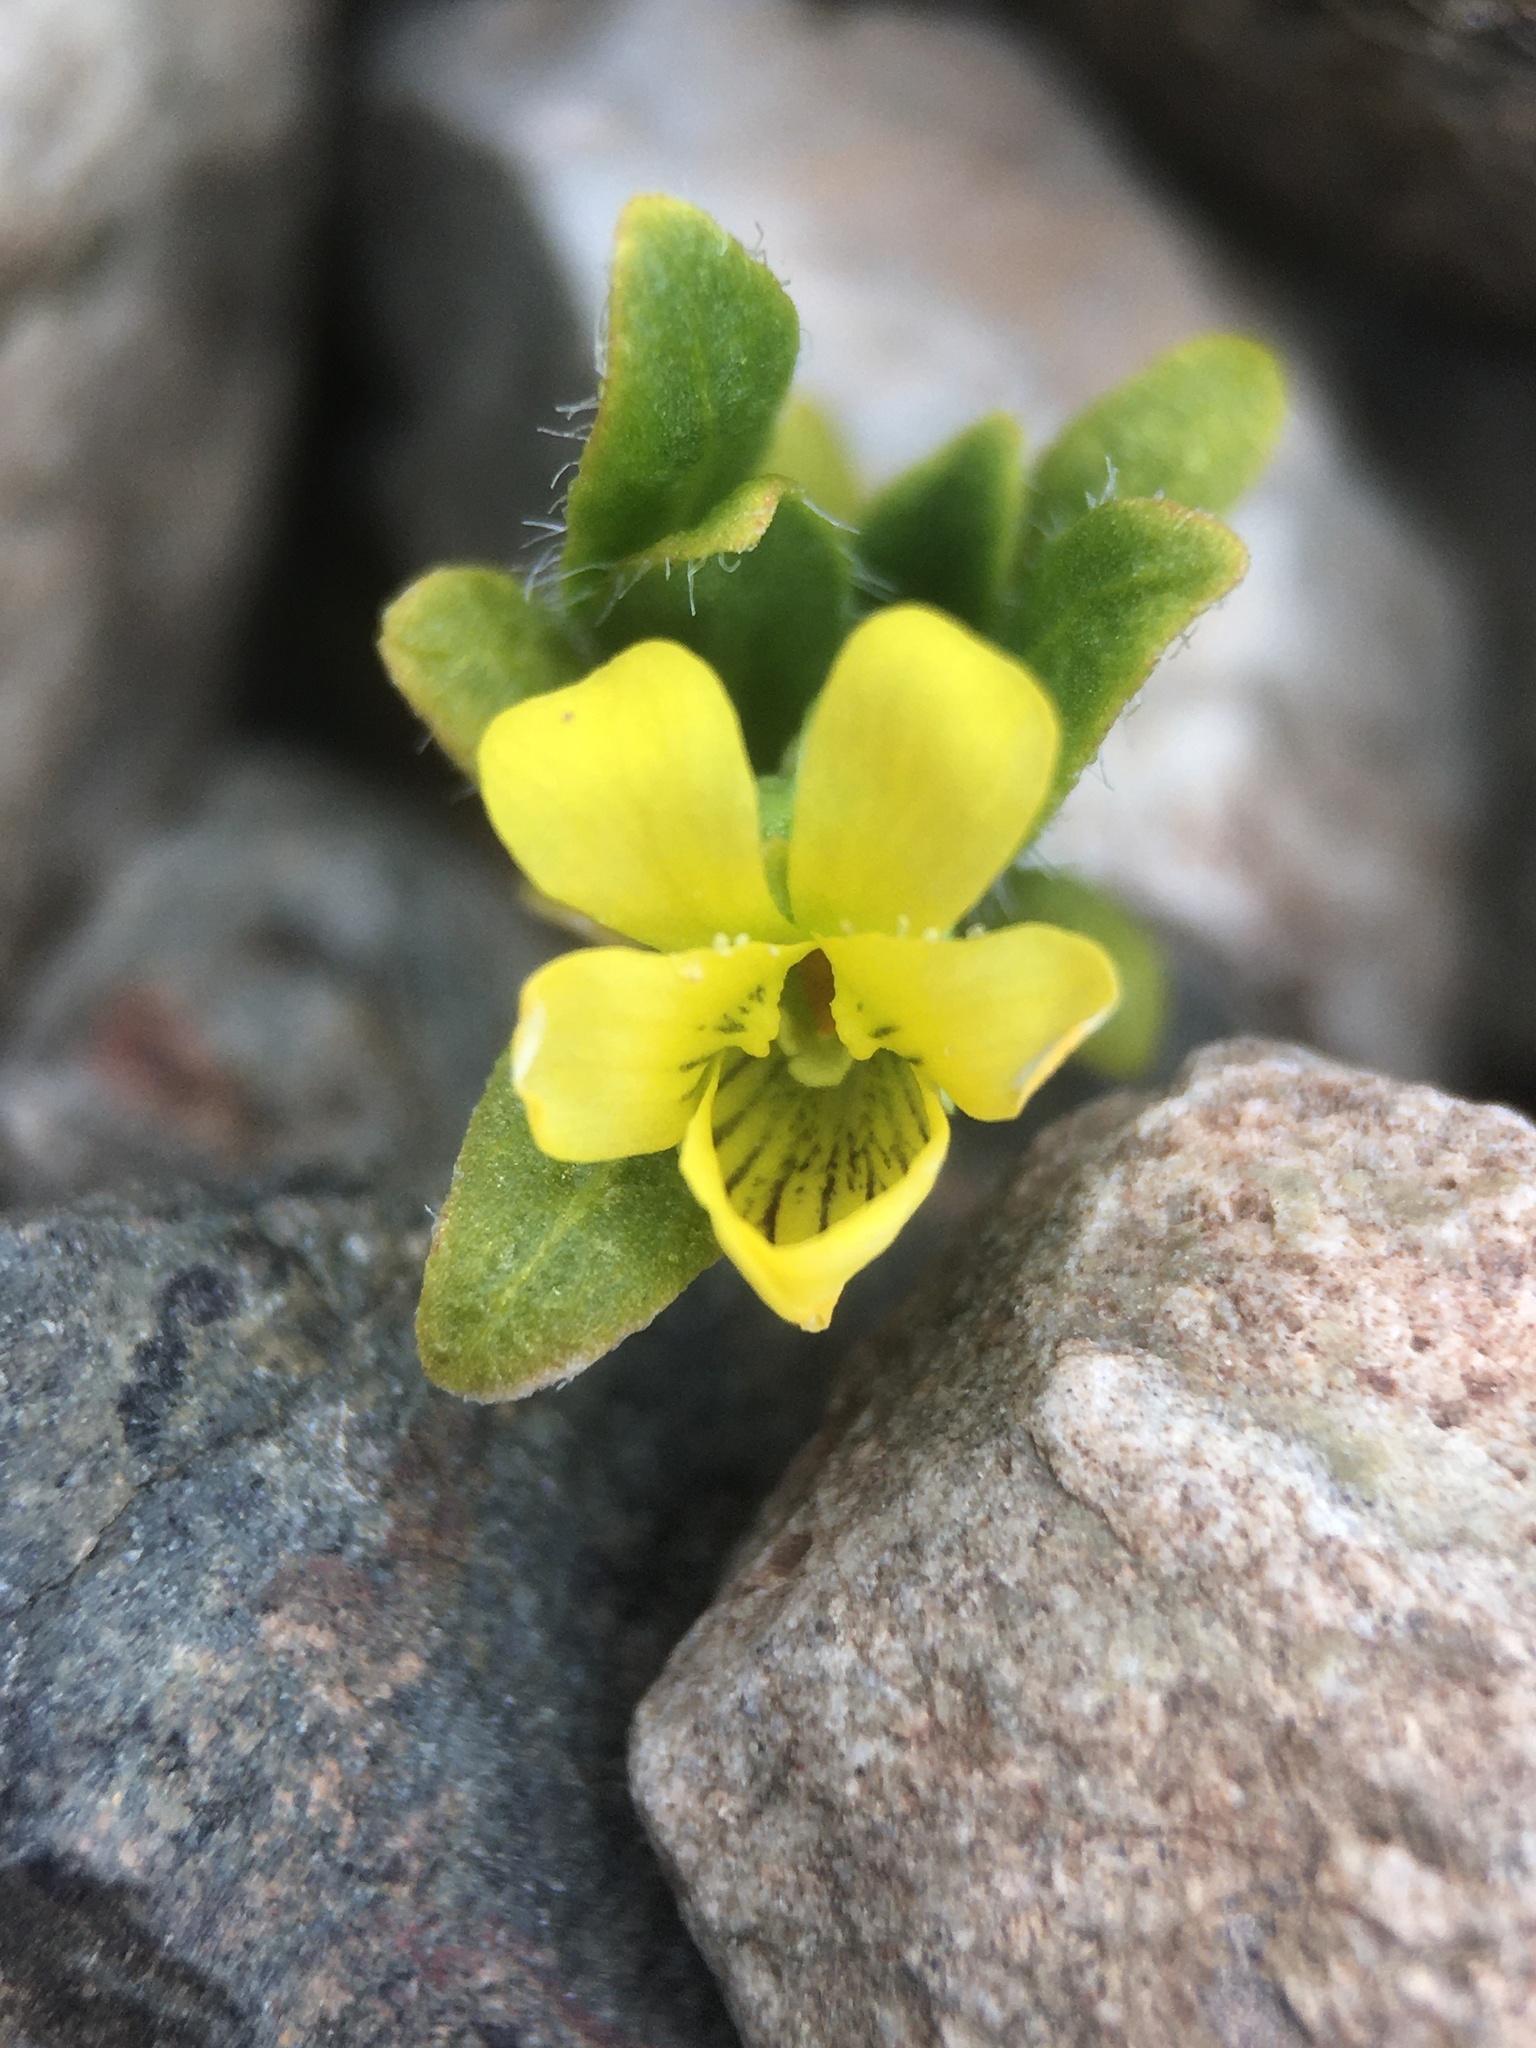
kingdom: Plantae
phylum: Tracheophyta
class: Magnoliopsida
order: Malpighiales
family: Violaceae
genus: Viola
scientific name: Viola polypoda
